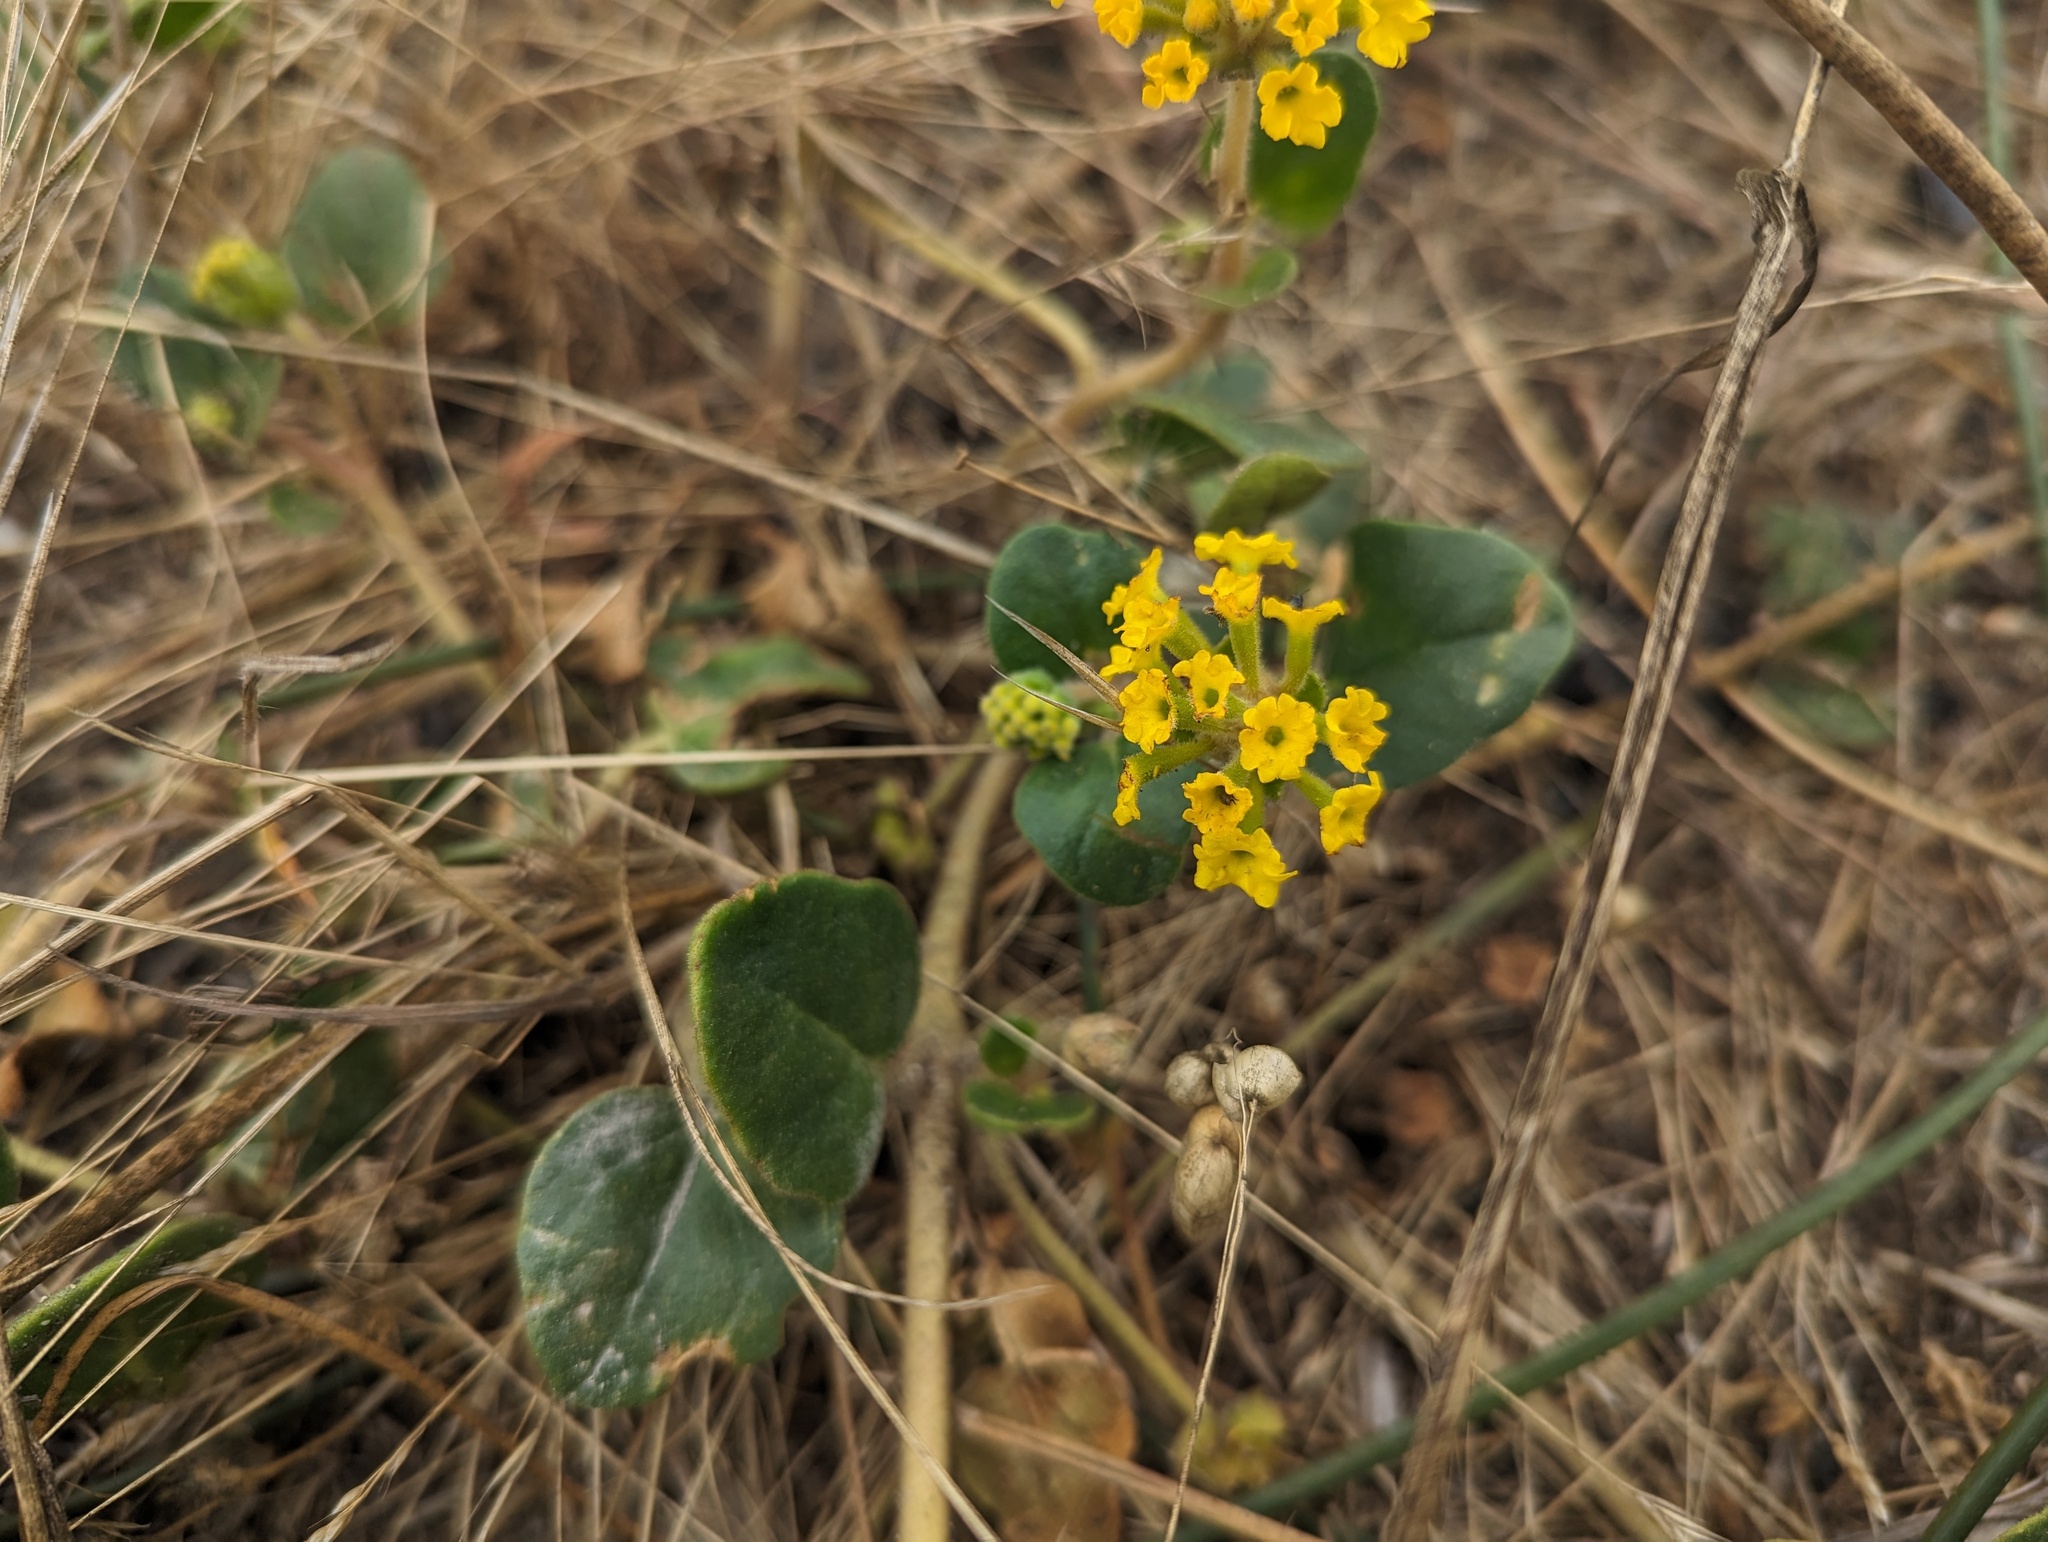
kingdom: Plantae
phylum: Tracheophyta
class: Magnoliopsida
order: Caryophyllales
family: Nyctaginaceae
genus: Abronia
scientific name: Abronia latifolia
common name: Yellow sand-verbena
